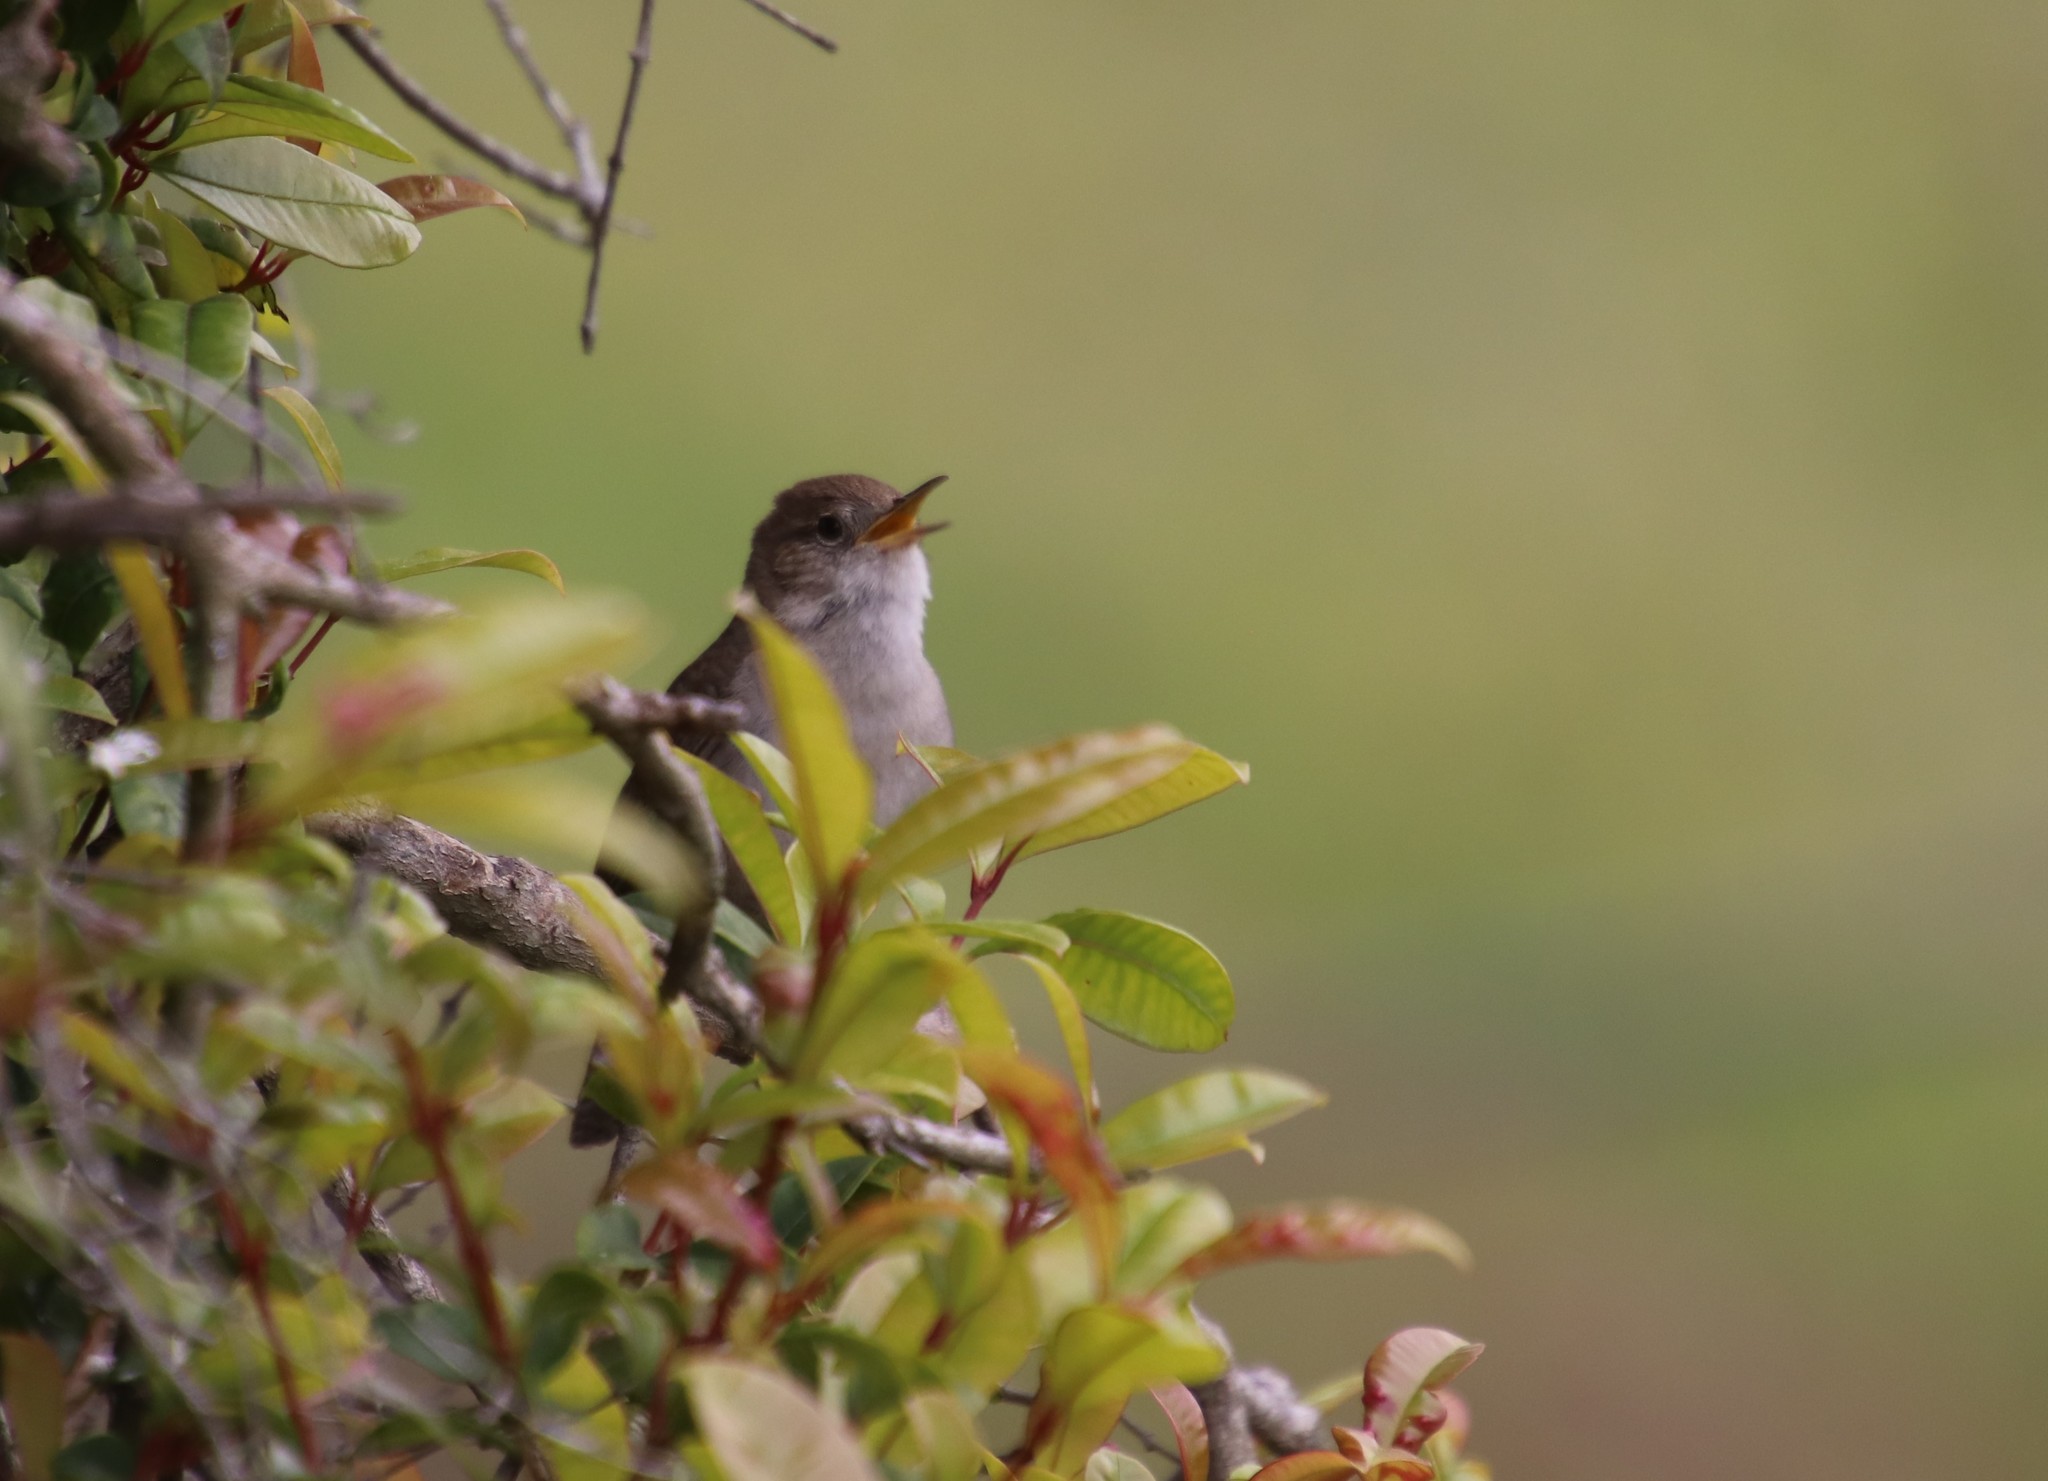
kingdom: Animalia
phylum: Chordata
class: Aves
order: Passeriformes
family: Troglodytidae
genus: Troglodytes
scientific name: Troglodytes aedon
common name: House wren
